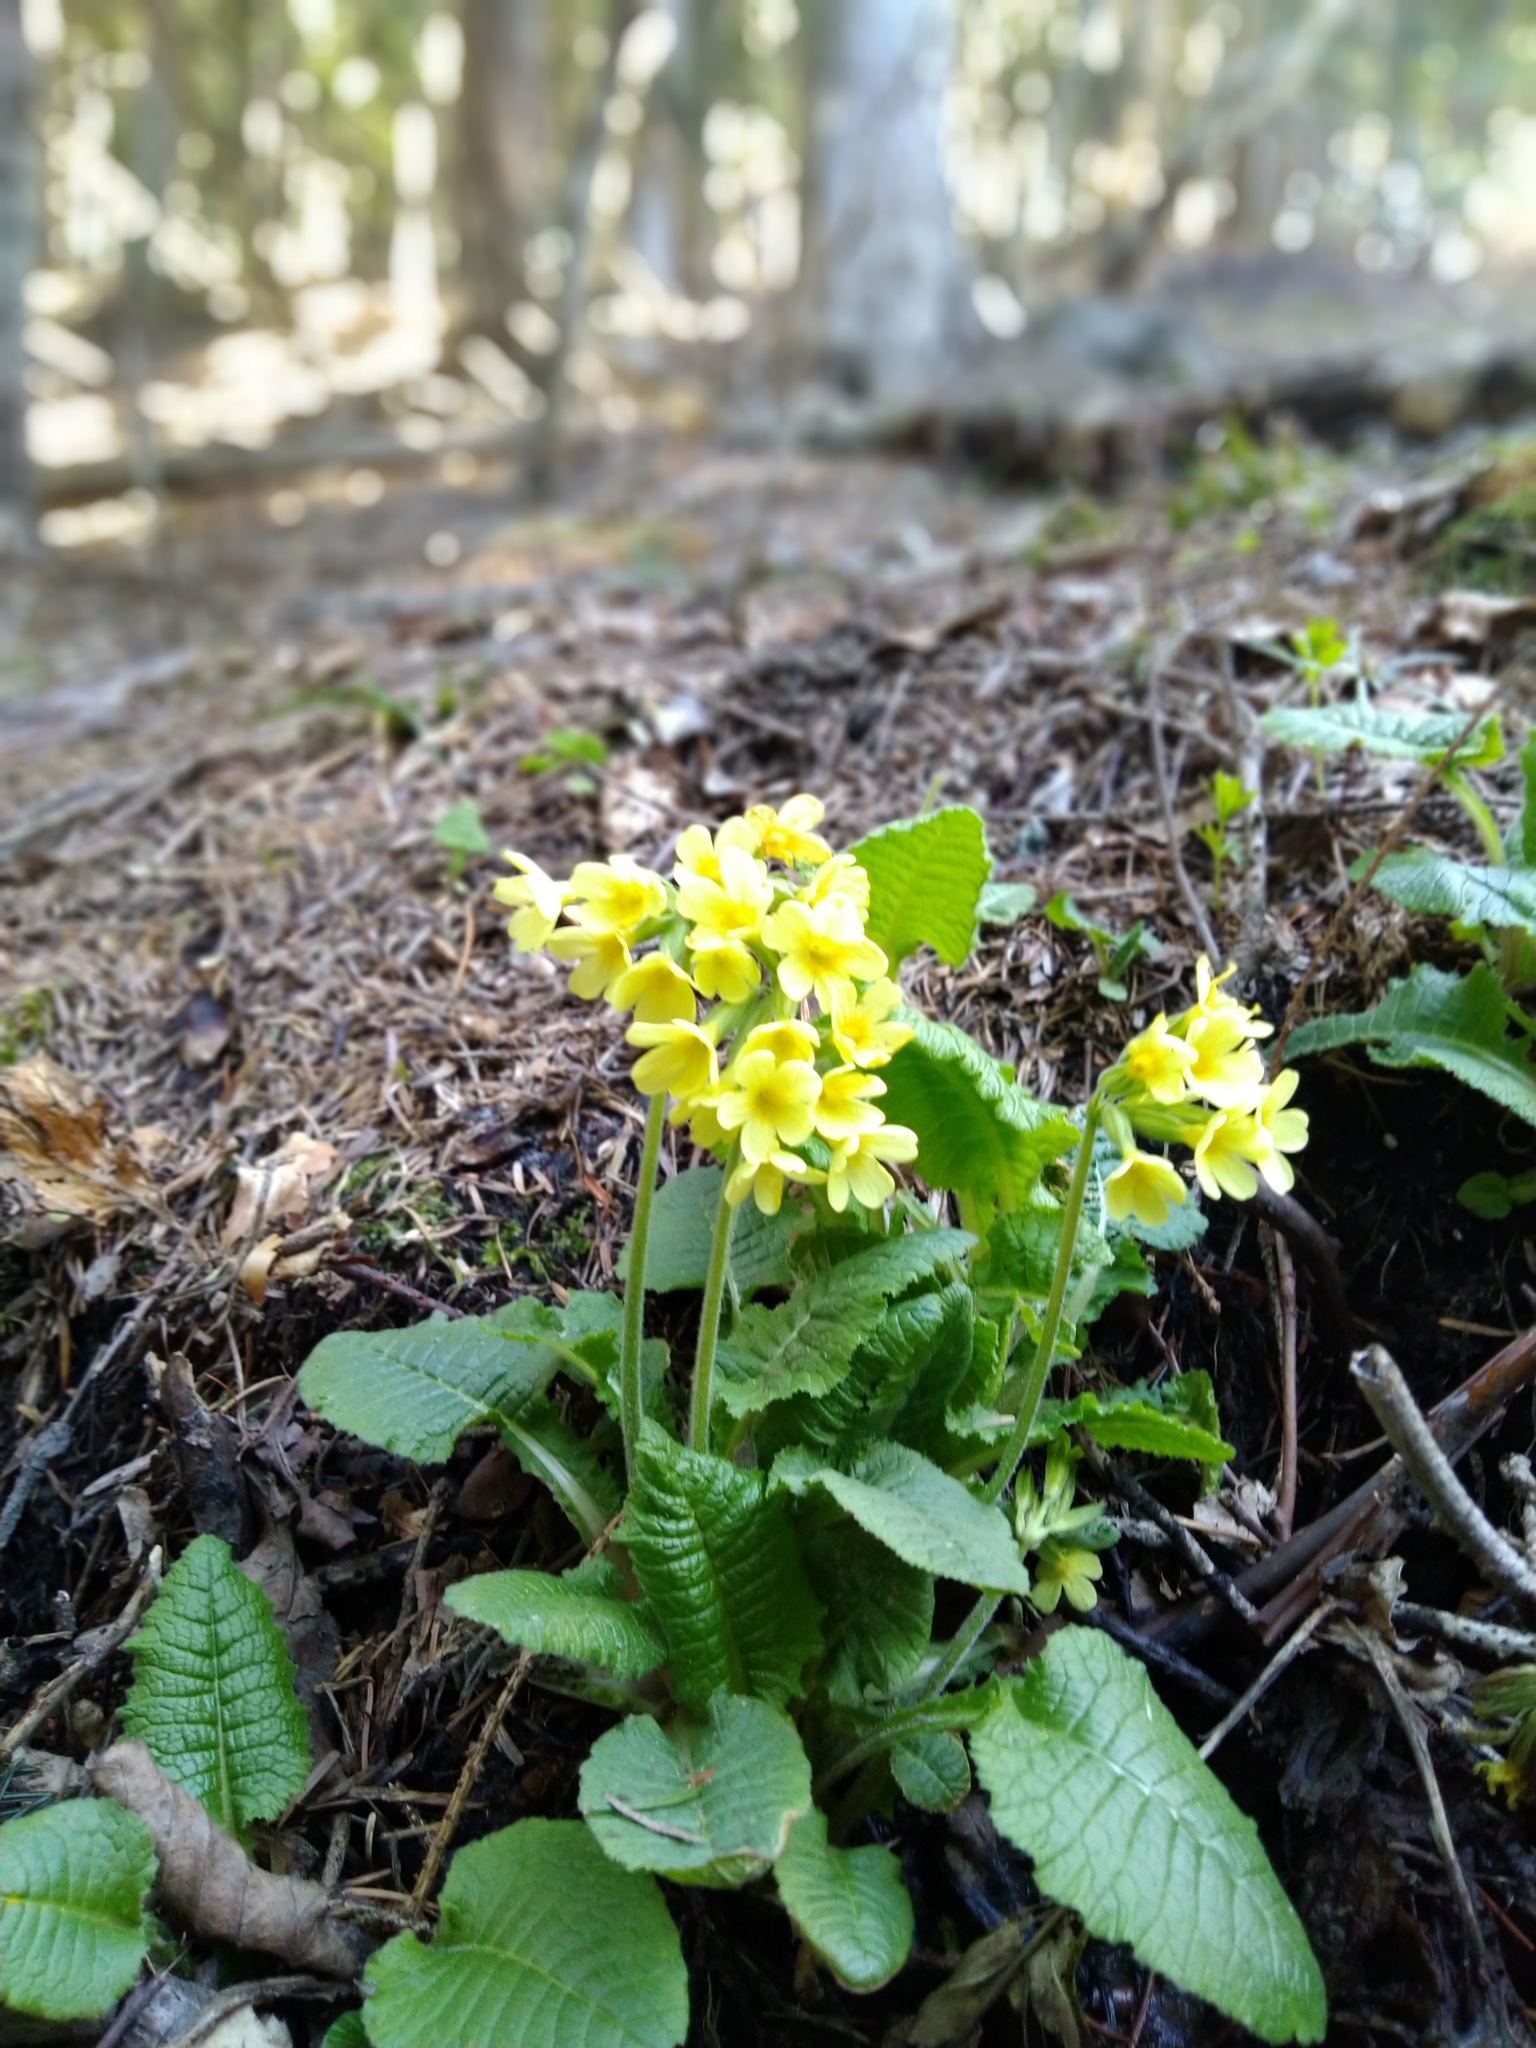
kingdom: Plantae
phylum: Tracheophyta
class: Magnoliopsida
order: Ericales
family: Primulaceae
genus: Primula
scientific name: Primula veris
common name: Cowslip
